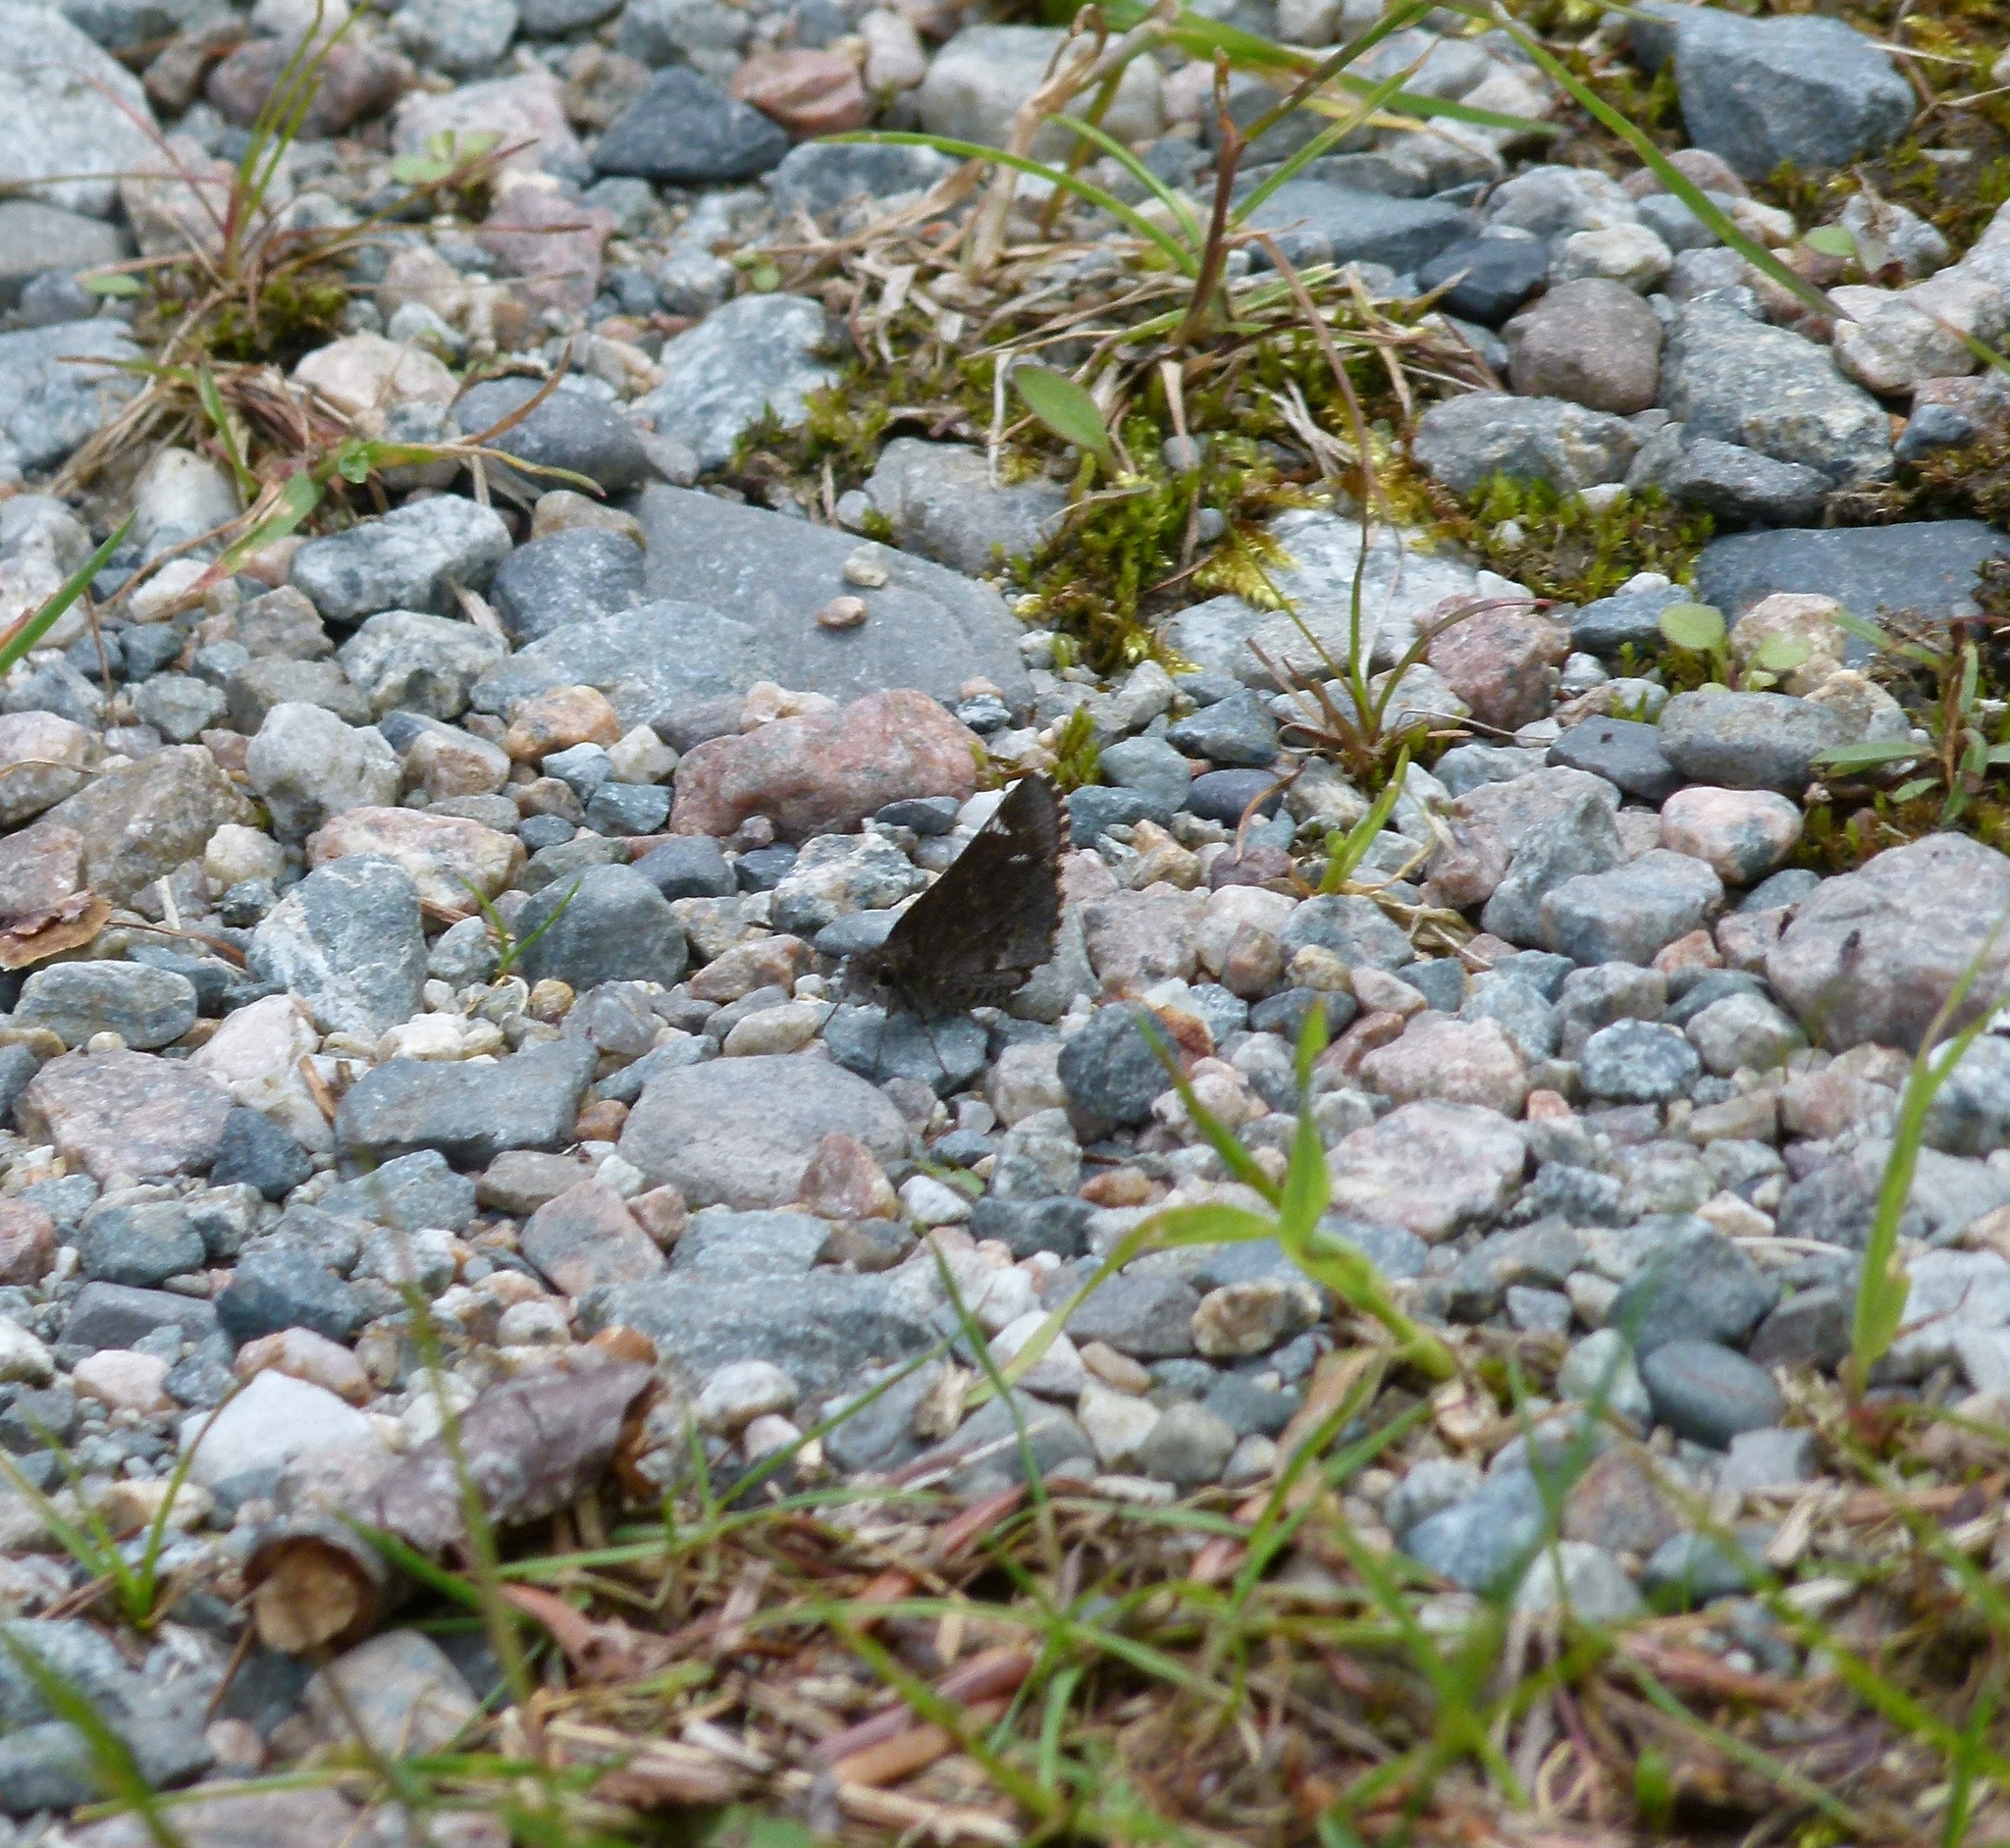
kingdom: Animalia
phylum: Arthropoda
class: Insecta
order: Lepidoptera
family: Hesperiidae
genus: Mastor
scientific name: Mastor vialis
